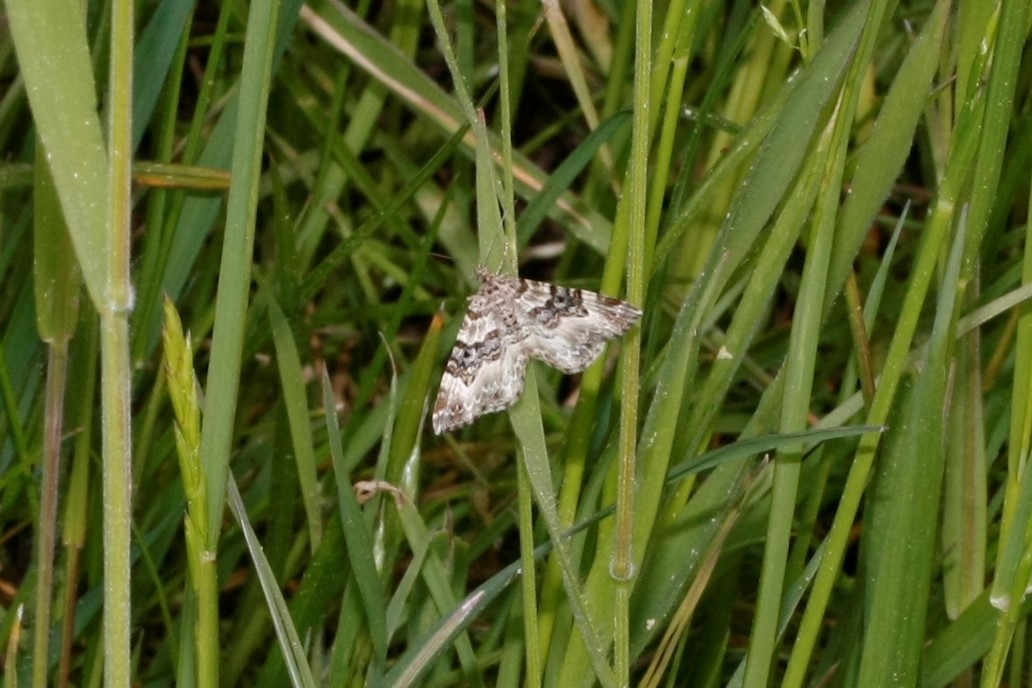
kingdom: Animalia
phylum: Arthropoda
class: Insecta
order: Lepidoptera
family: Geometridae
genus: Epirrhoe
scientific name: Epirrhoe alternata
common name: Common carpet
